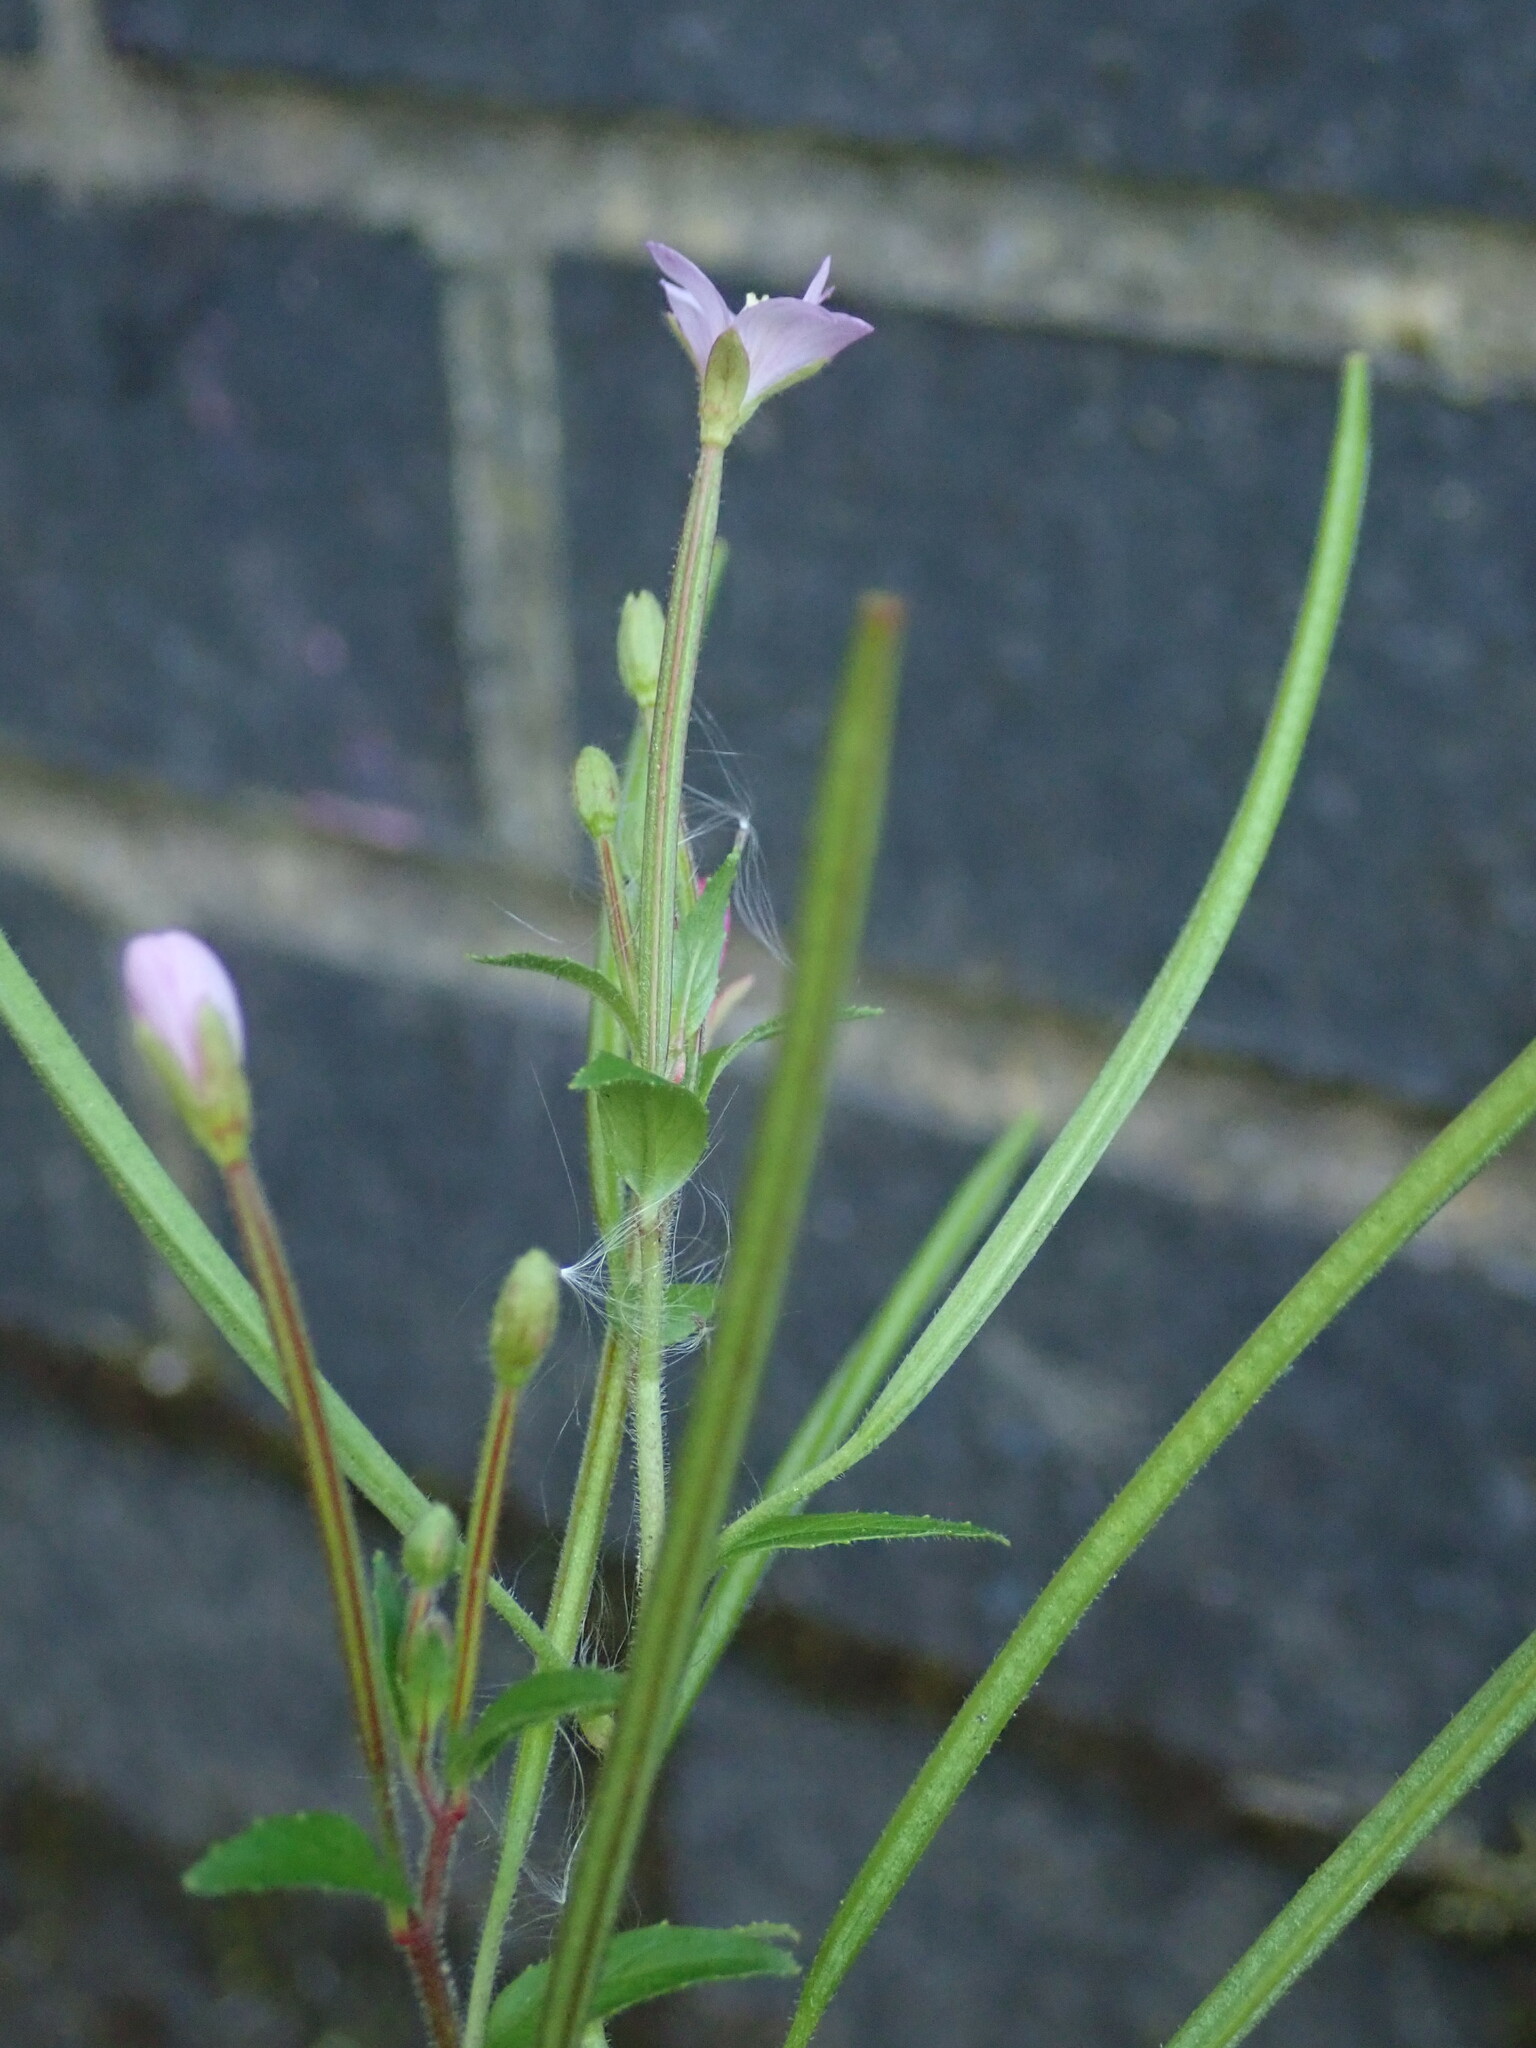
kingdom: Plantae
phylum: Tracheophyta
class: Magnoliopsida
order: Myrtales
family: Onagraceae
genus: Epilobium
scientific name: Epilobium parviflorum
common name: Hoary willowherb
